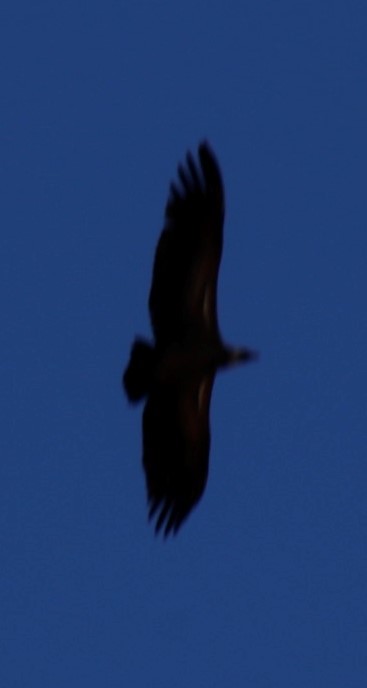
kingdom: Animalia
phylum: Chordata
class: Aves
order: Accipitriformes
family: Accipitridae
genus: Aquila
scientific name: Aquila rapax
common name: Tawny eagle
